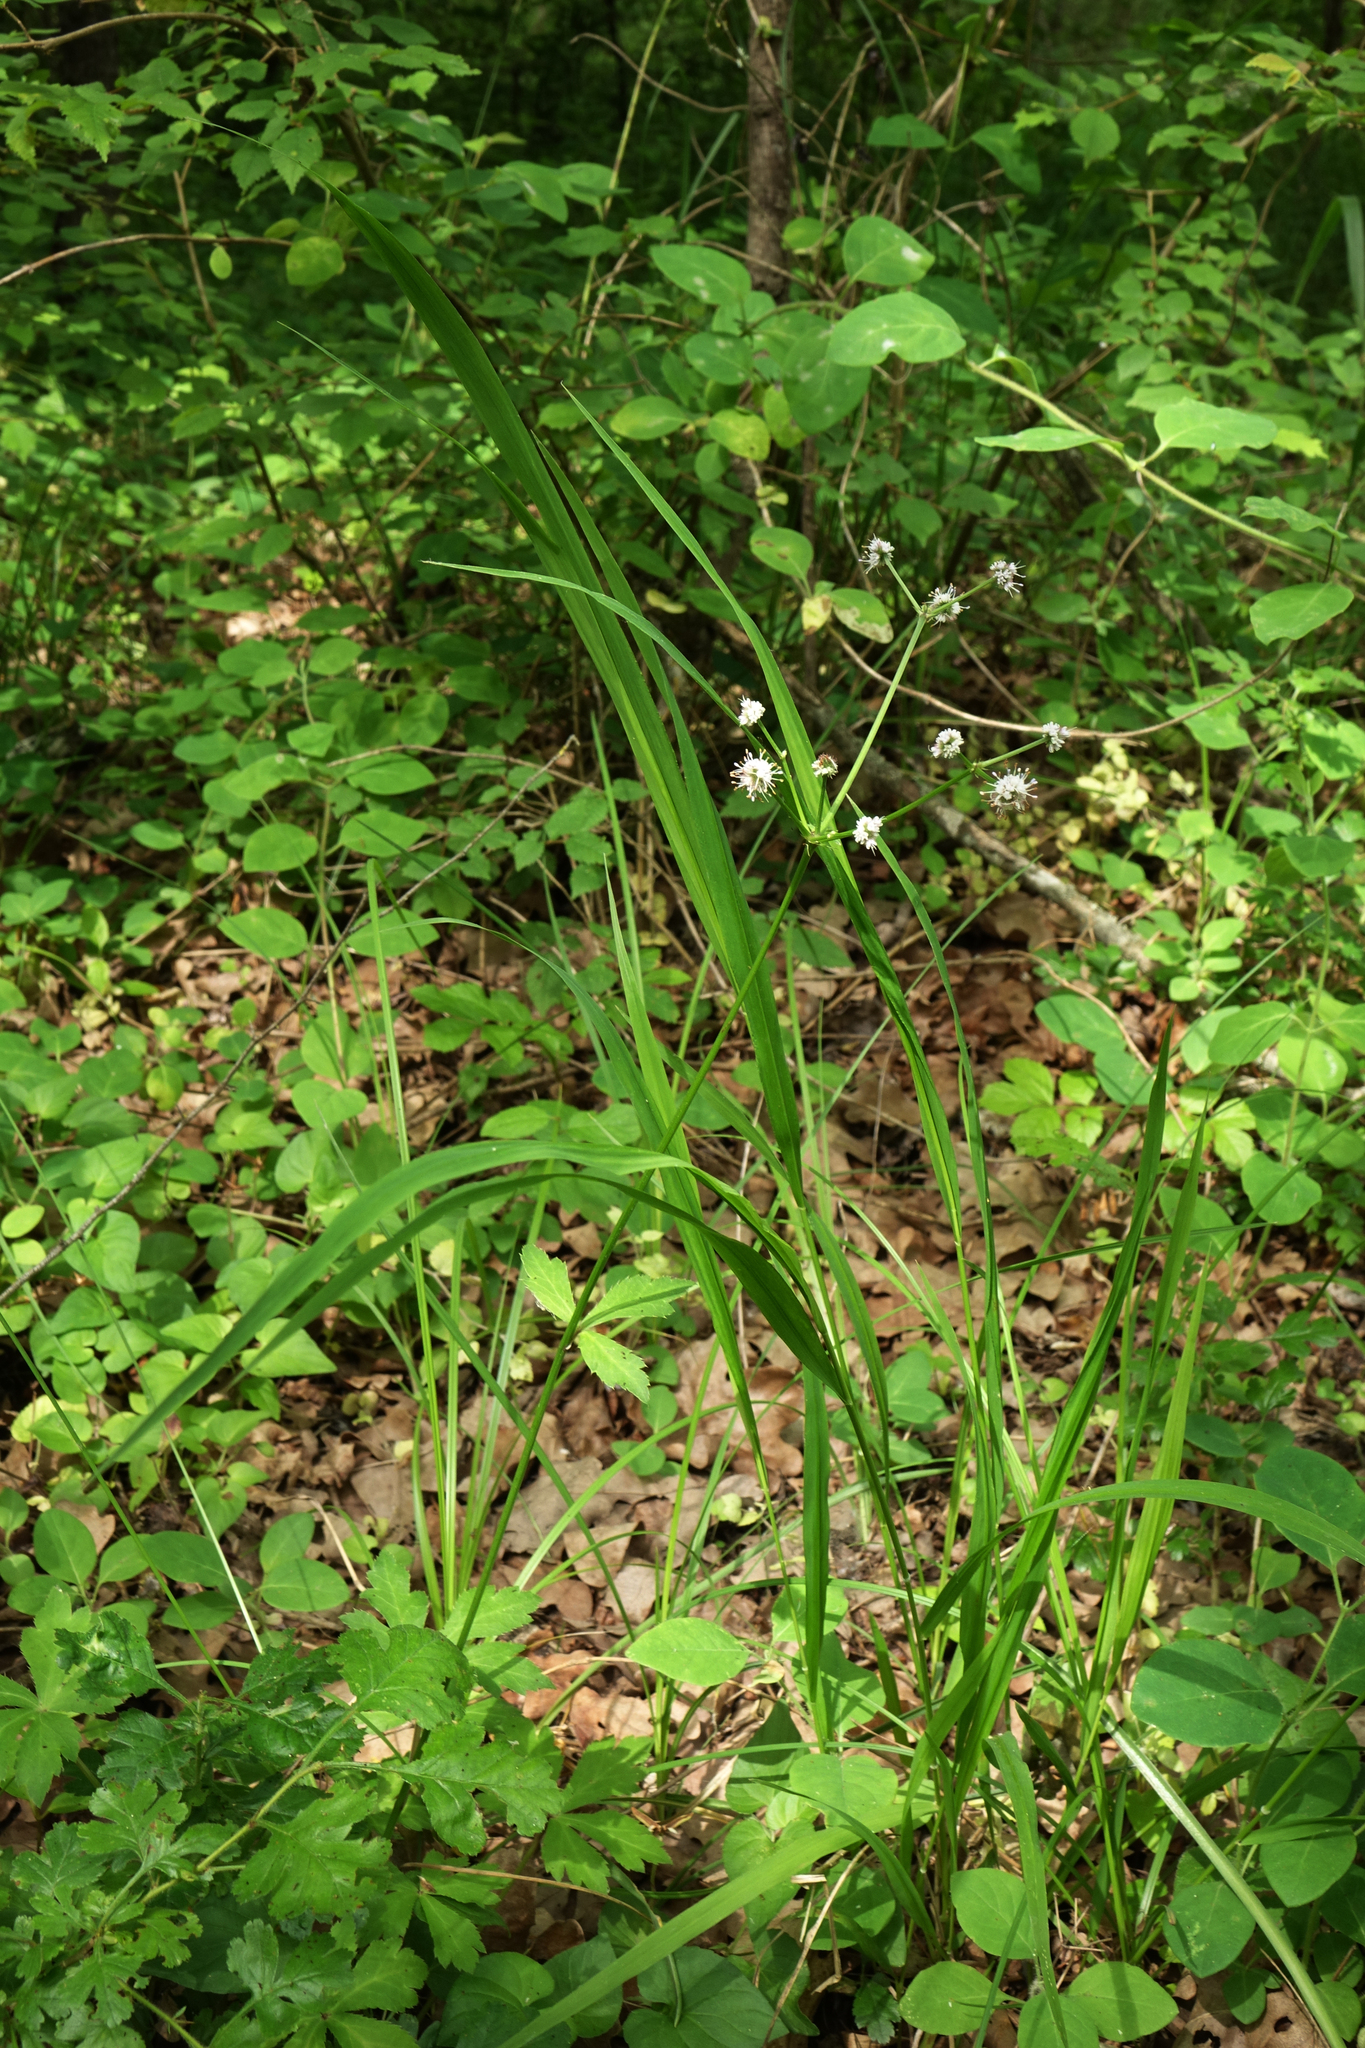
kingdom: Plantae
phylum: Tracheophyta
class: Magnoliopsida
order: Apiales
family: Apiaceae
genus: Sanicula
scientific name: Sanicula europaea
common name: Sanicle
